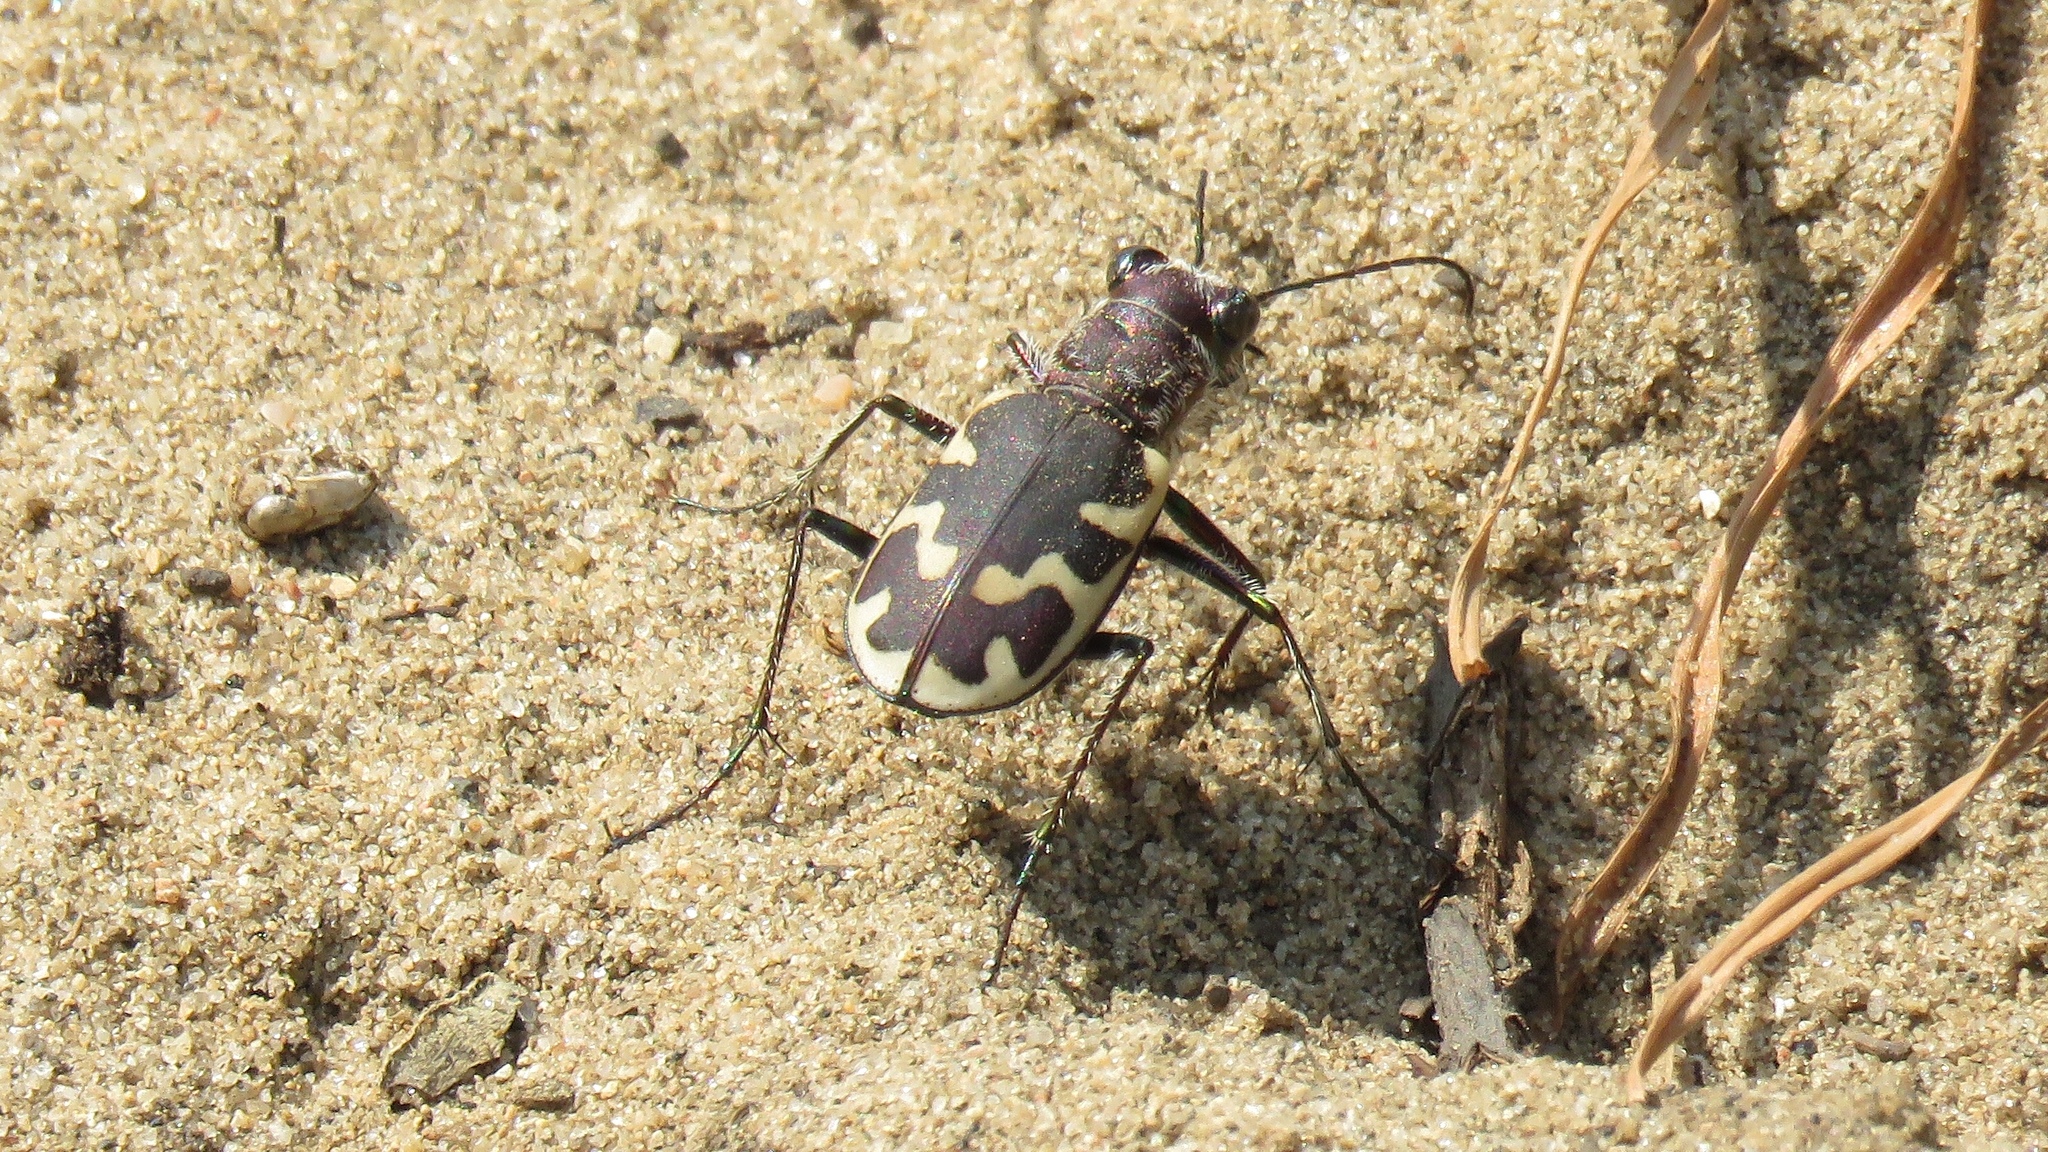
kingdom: Animalia
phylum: Arthropoda
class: Insecta
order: Coleoptera
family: Carabidae
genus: Cicindela
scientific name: Cicindela formosa
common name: Big sand tiger beetle
